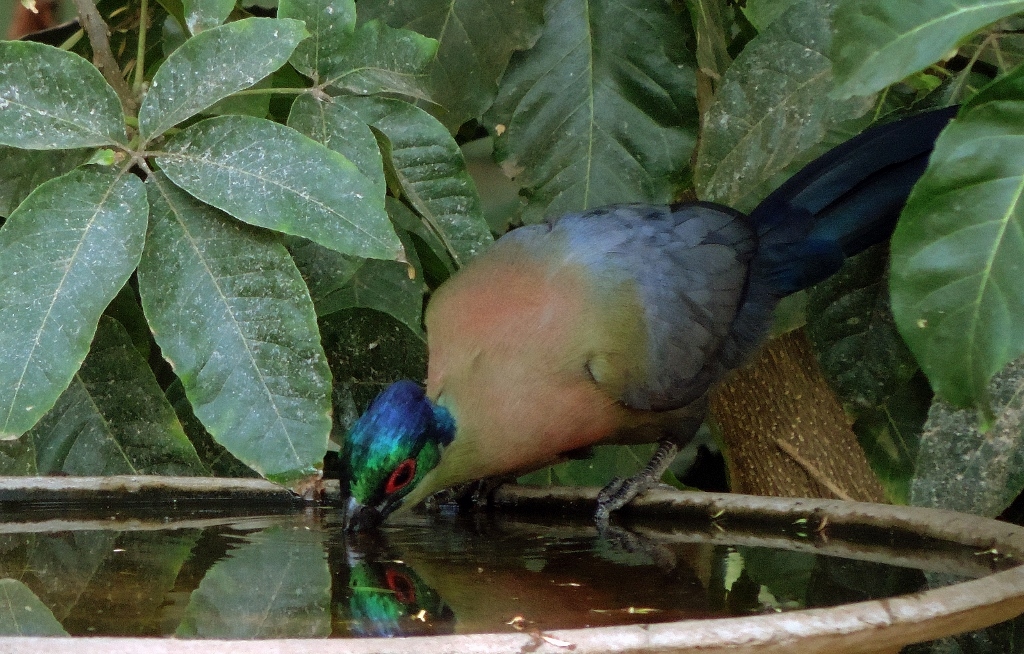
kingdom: Animalia
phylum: Chordata
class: Aves
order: Musophagiformes
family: Musophagidae
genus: Tauraco
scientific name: Tauraco porphyreolophus
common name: Purple-crested turaco
